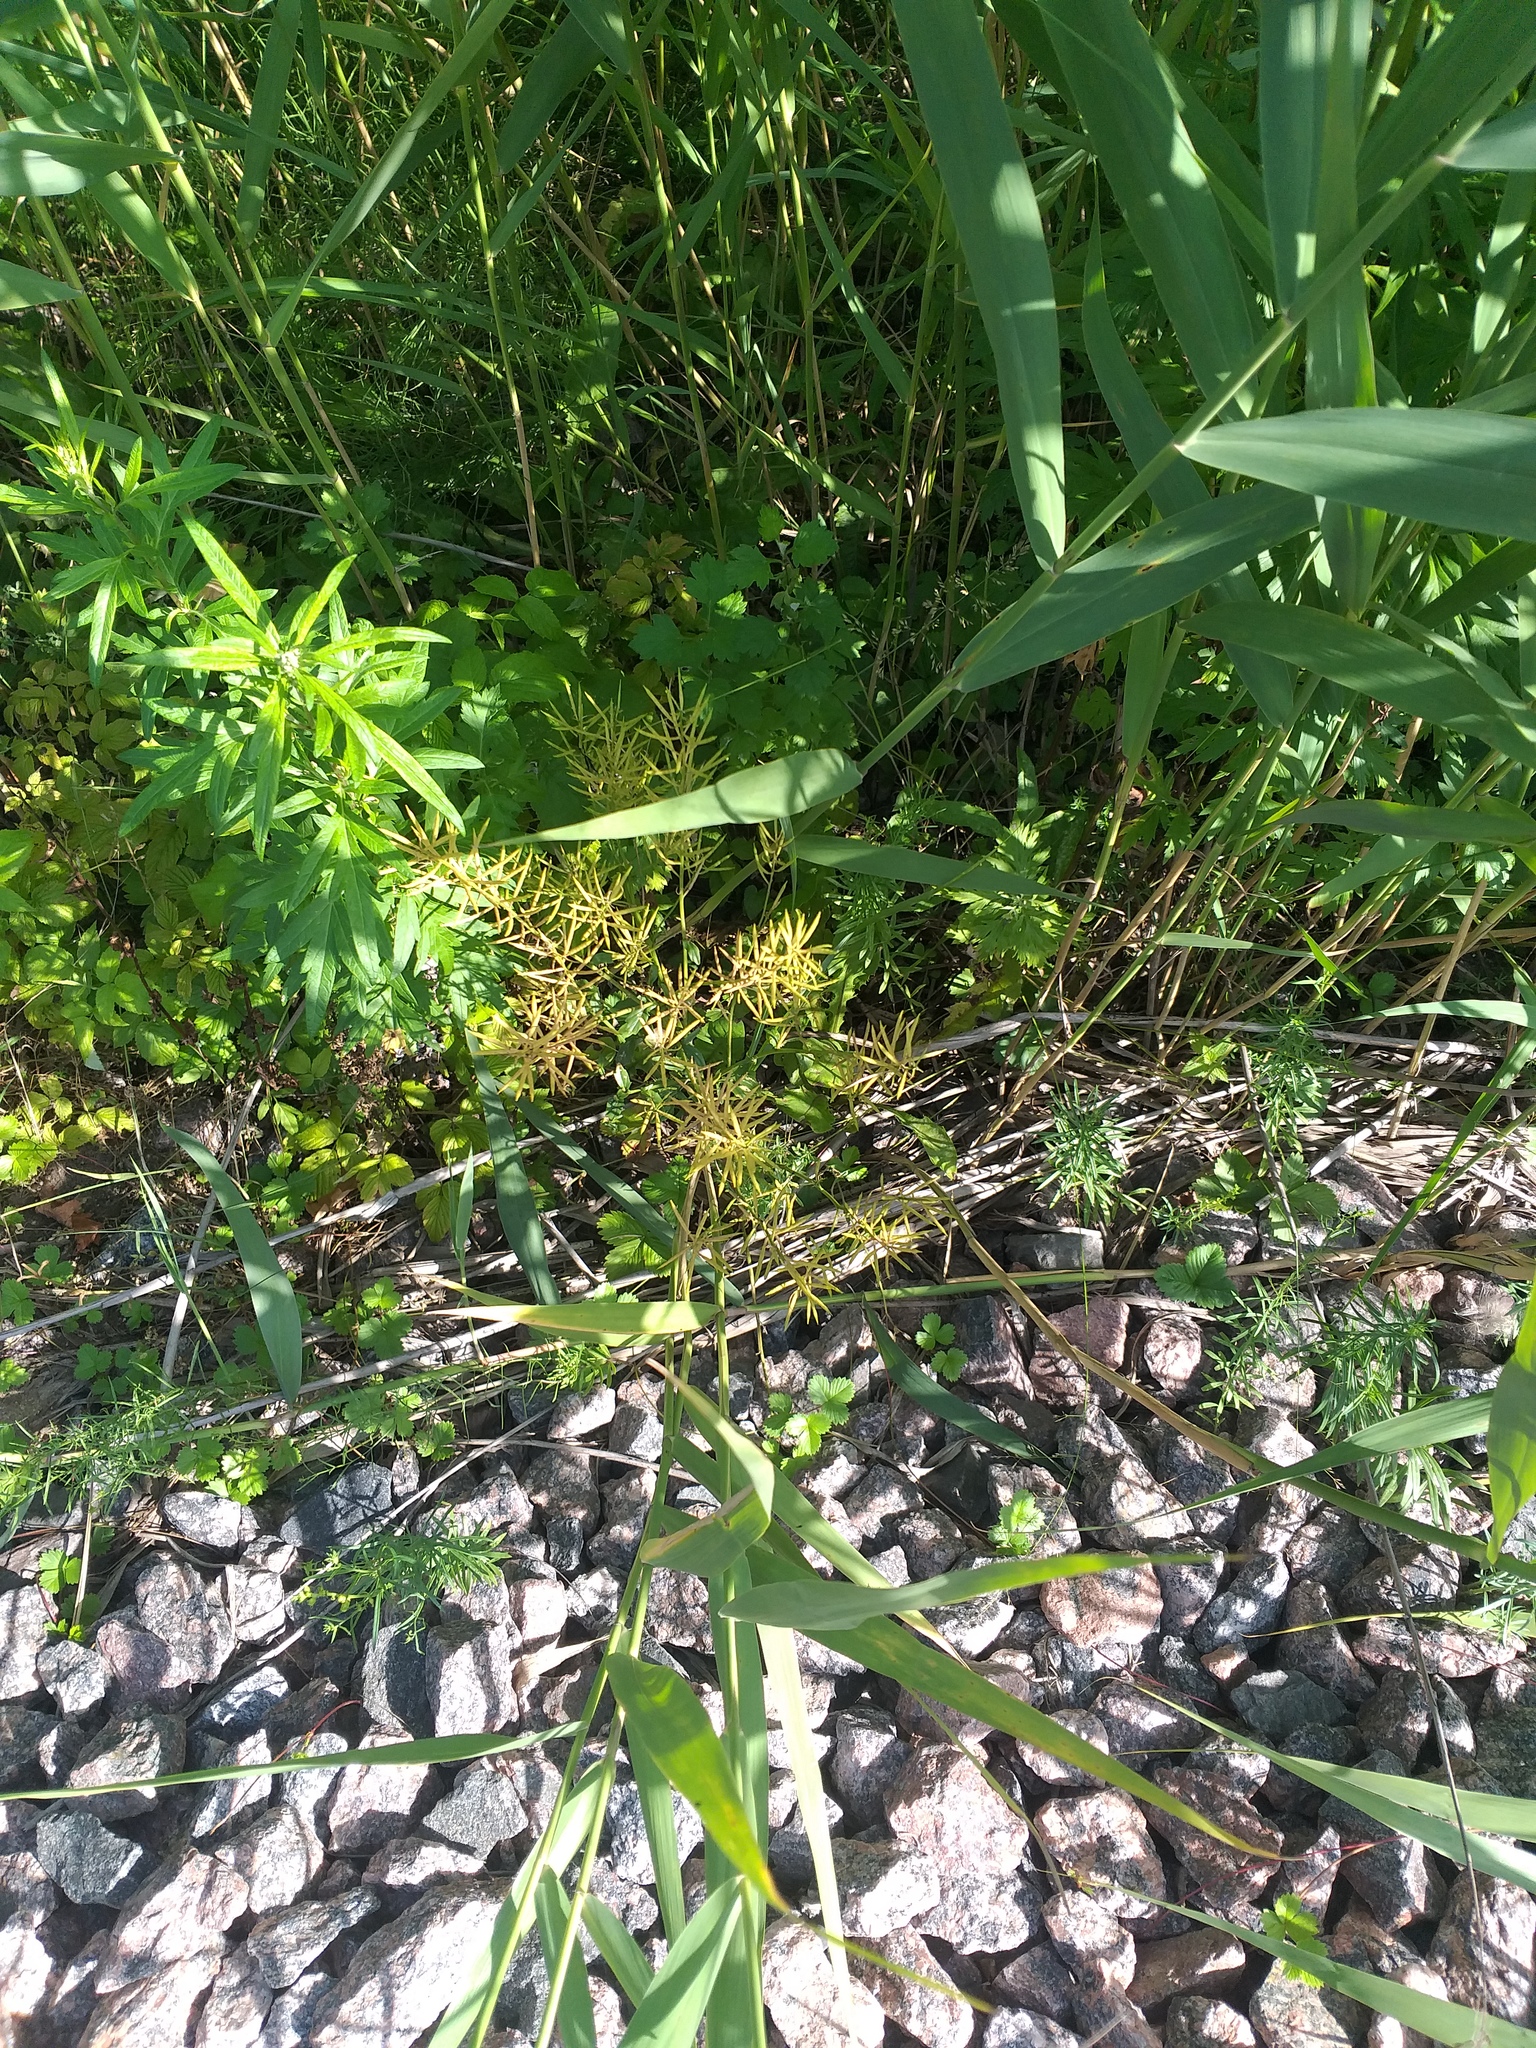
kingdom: Plantae
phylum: Tracheophyta
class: Magnoliopsida
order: Brassicales
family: Brassicaceae
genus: Barbarea
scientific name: Barbarea vulgaris
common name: Cressy-greens
